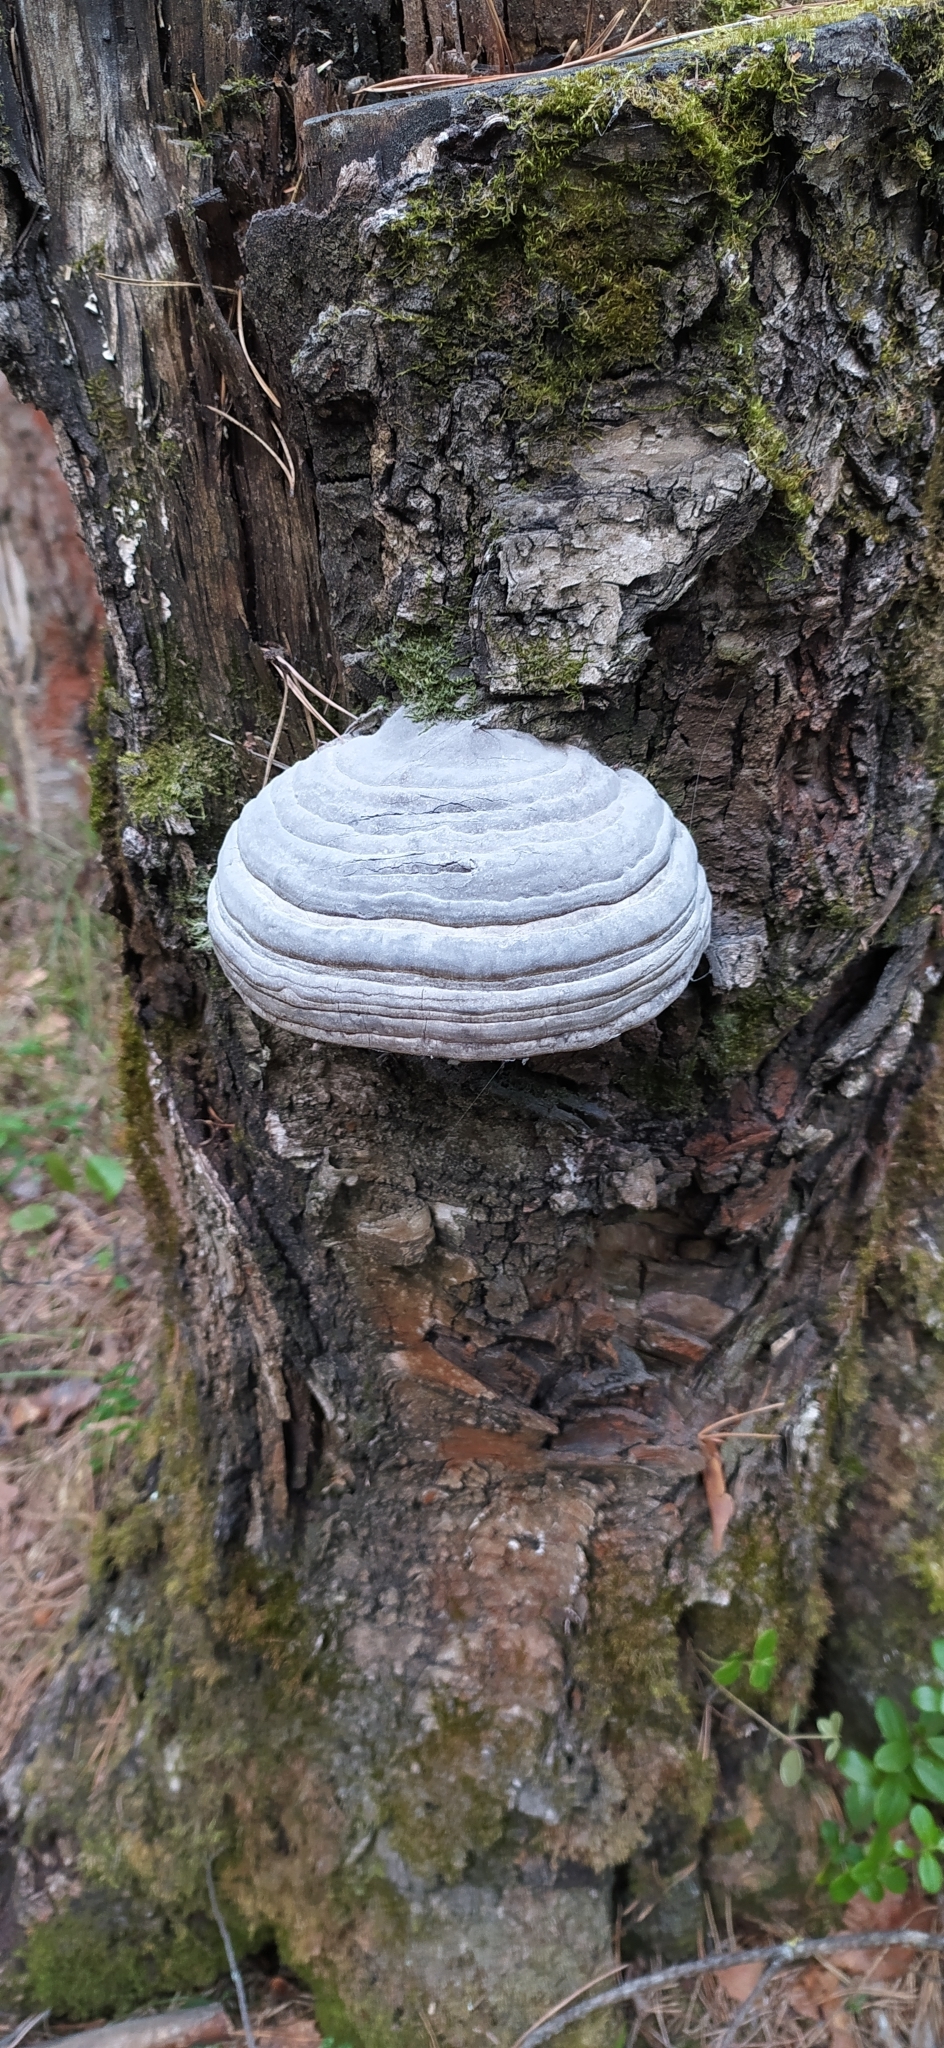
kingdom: Fungi
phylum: Basidiomycota
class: Agaricomycetes
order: Polyporales
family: Polyporaceae
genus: Fomes
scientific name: Fomes fomentarius
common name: Hoof fungus
